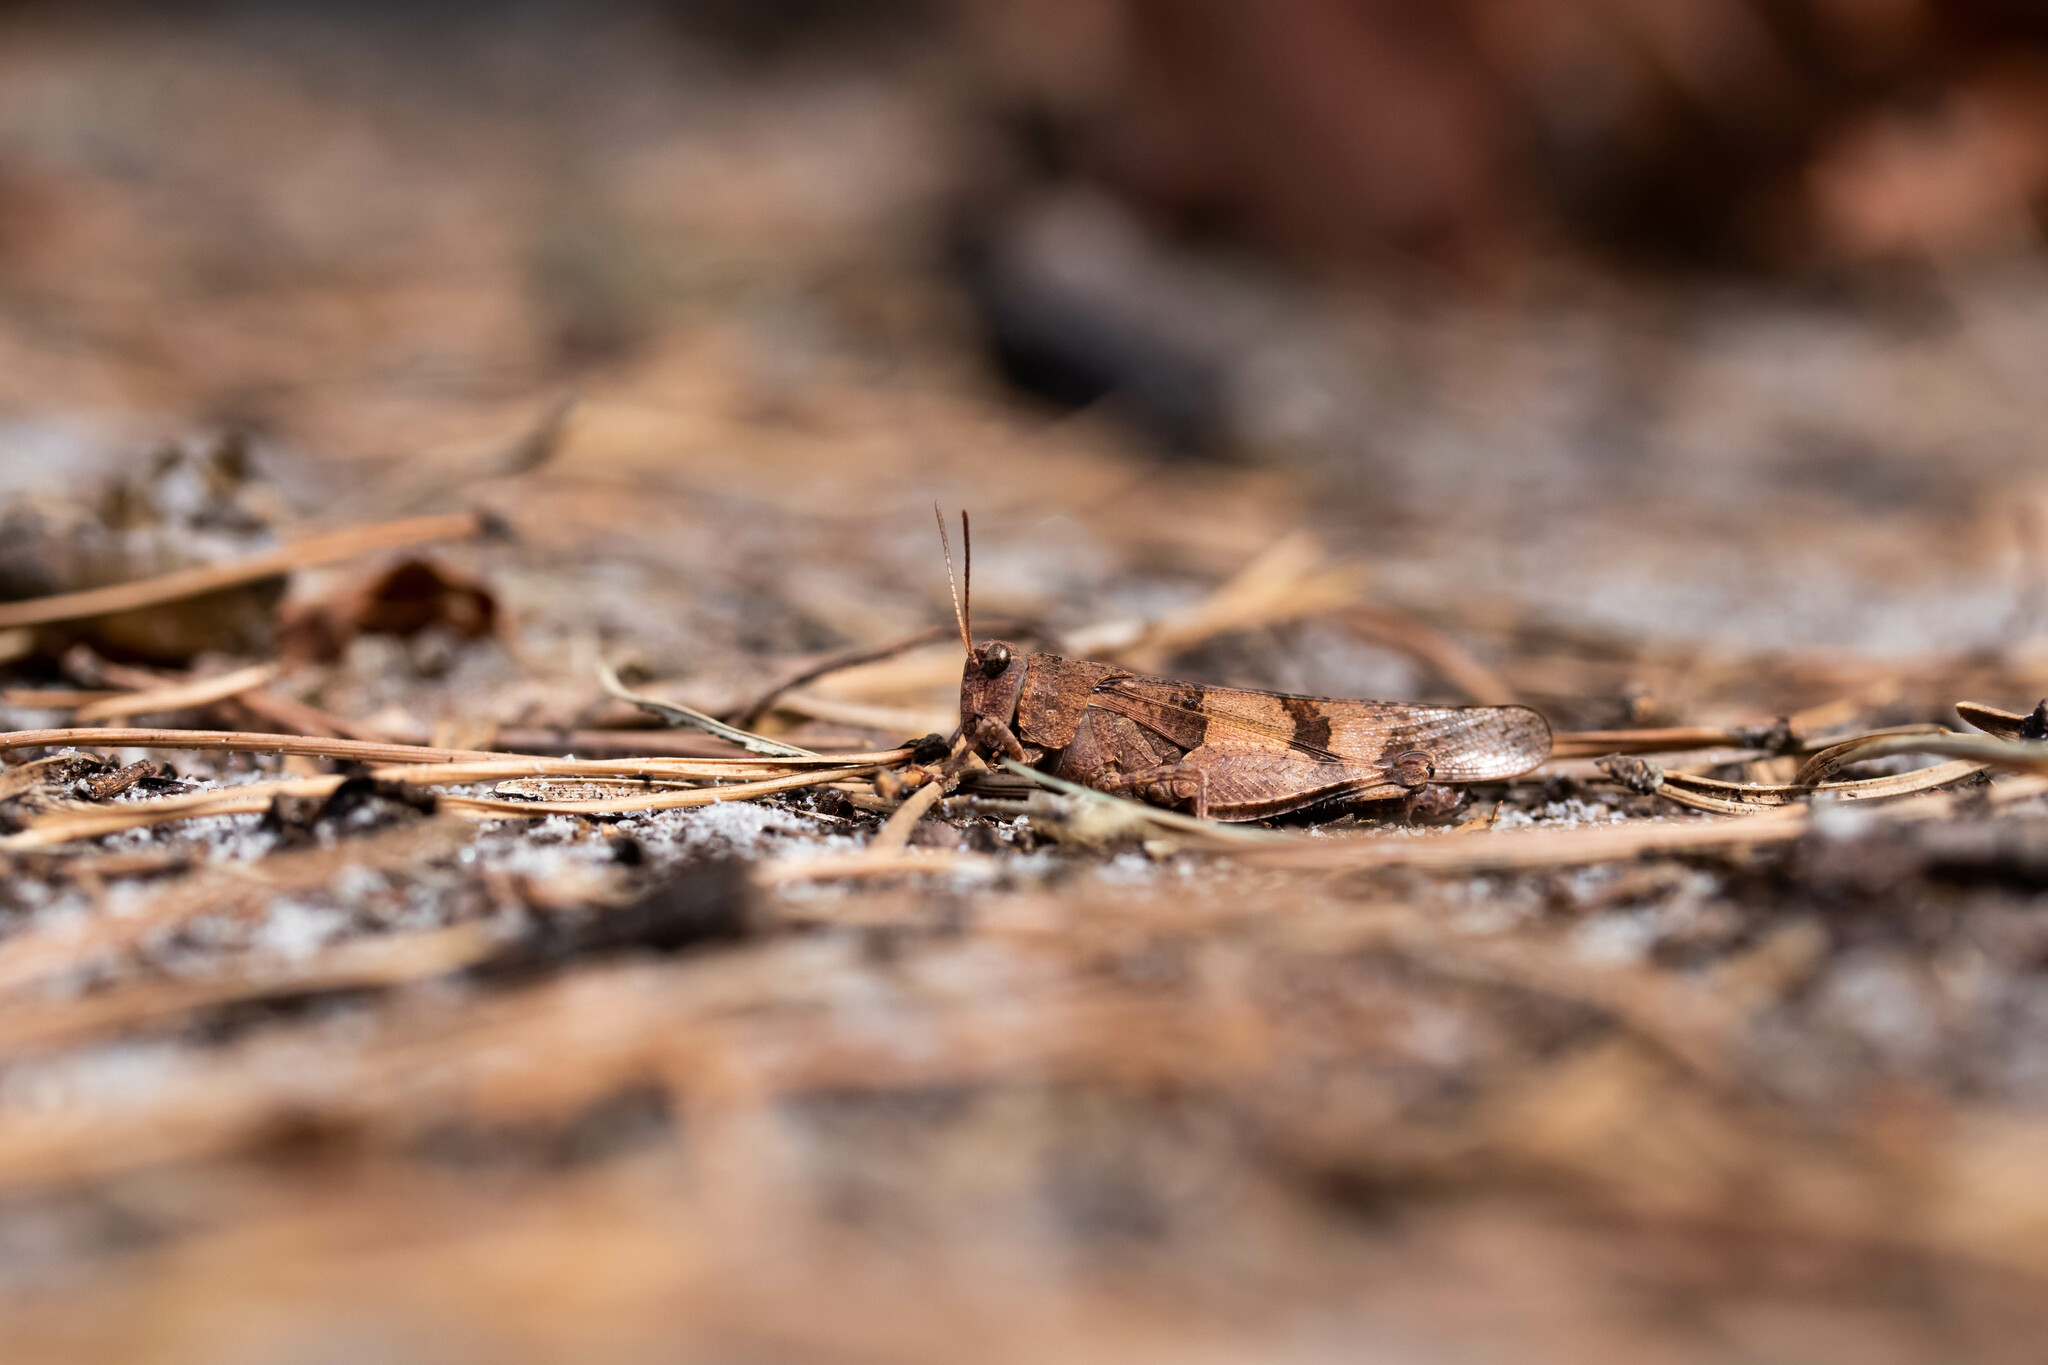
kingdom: Animalia
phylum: Arthropoda
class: Insecta
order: Orthoptera
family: Acrididae
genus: Oedipoda
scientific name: Oedipoda caerulescens
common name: Blue-winged grasshopper
